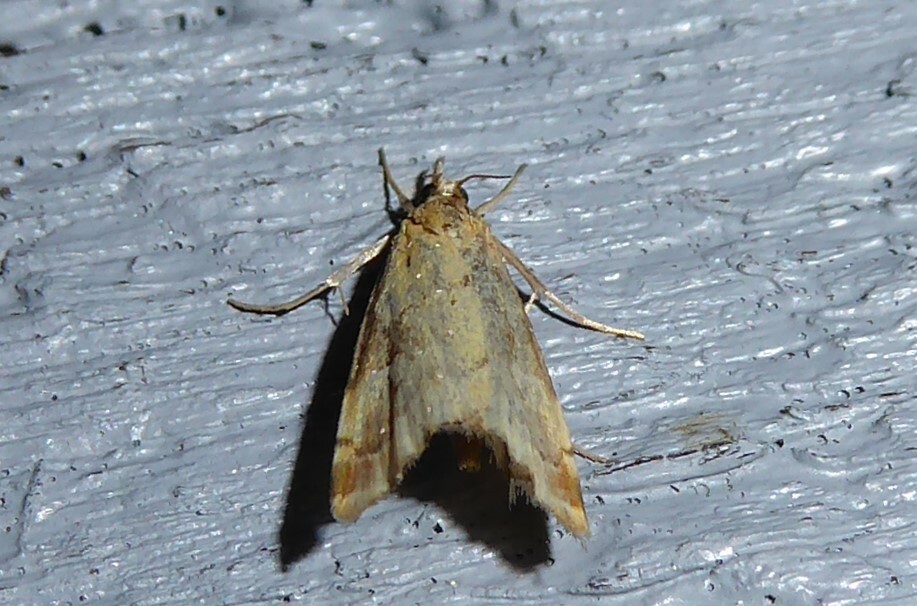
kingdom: Animalia
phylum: Arthropoda
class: Insecta
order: Lepidoptera
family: Crambidae
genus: Glaucocharis
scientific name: Glaucocharis lepidella
